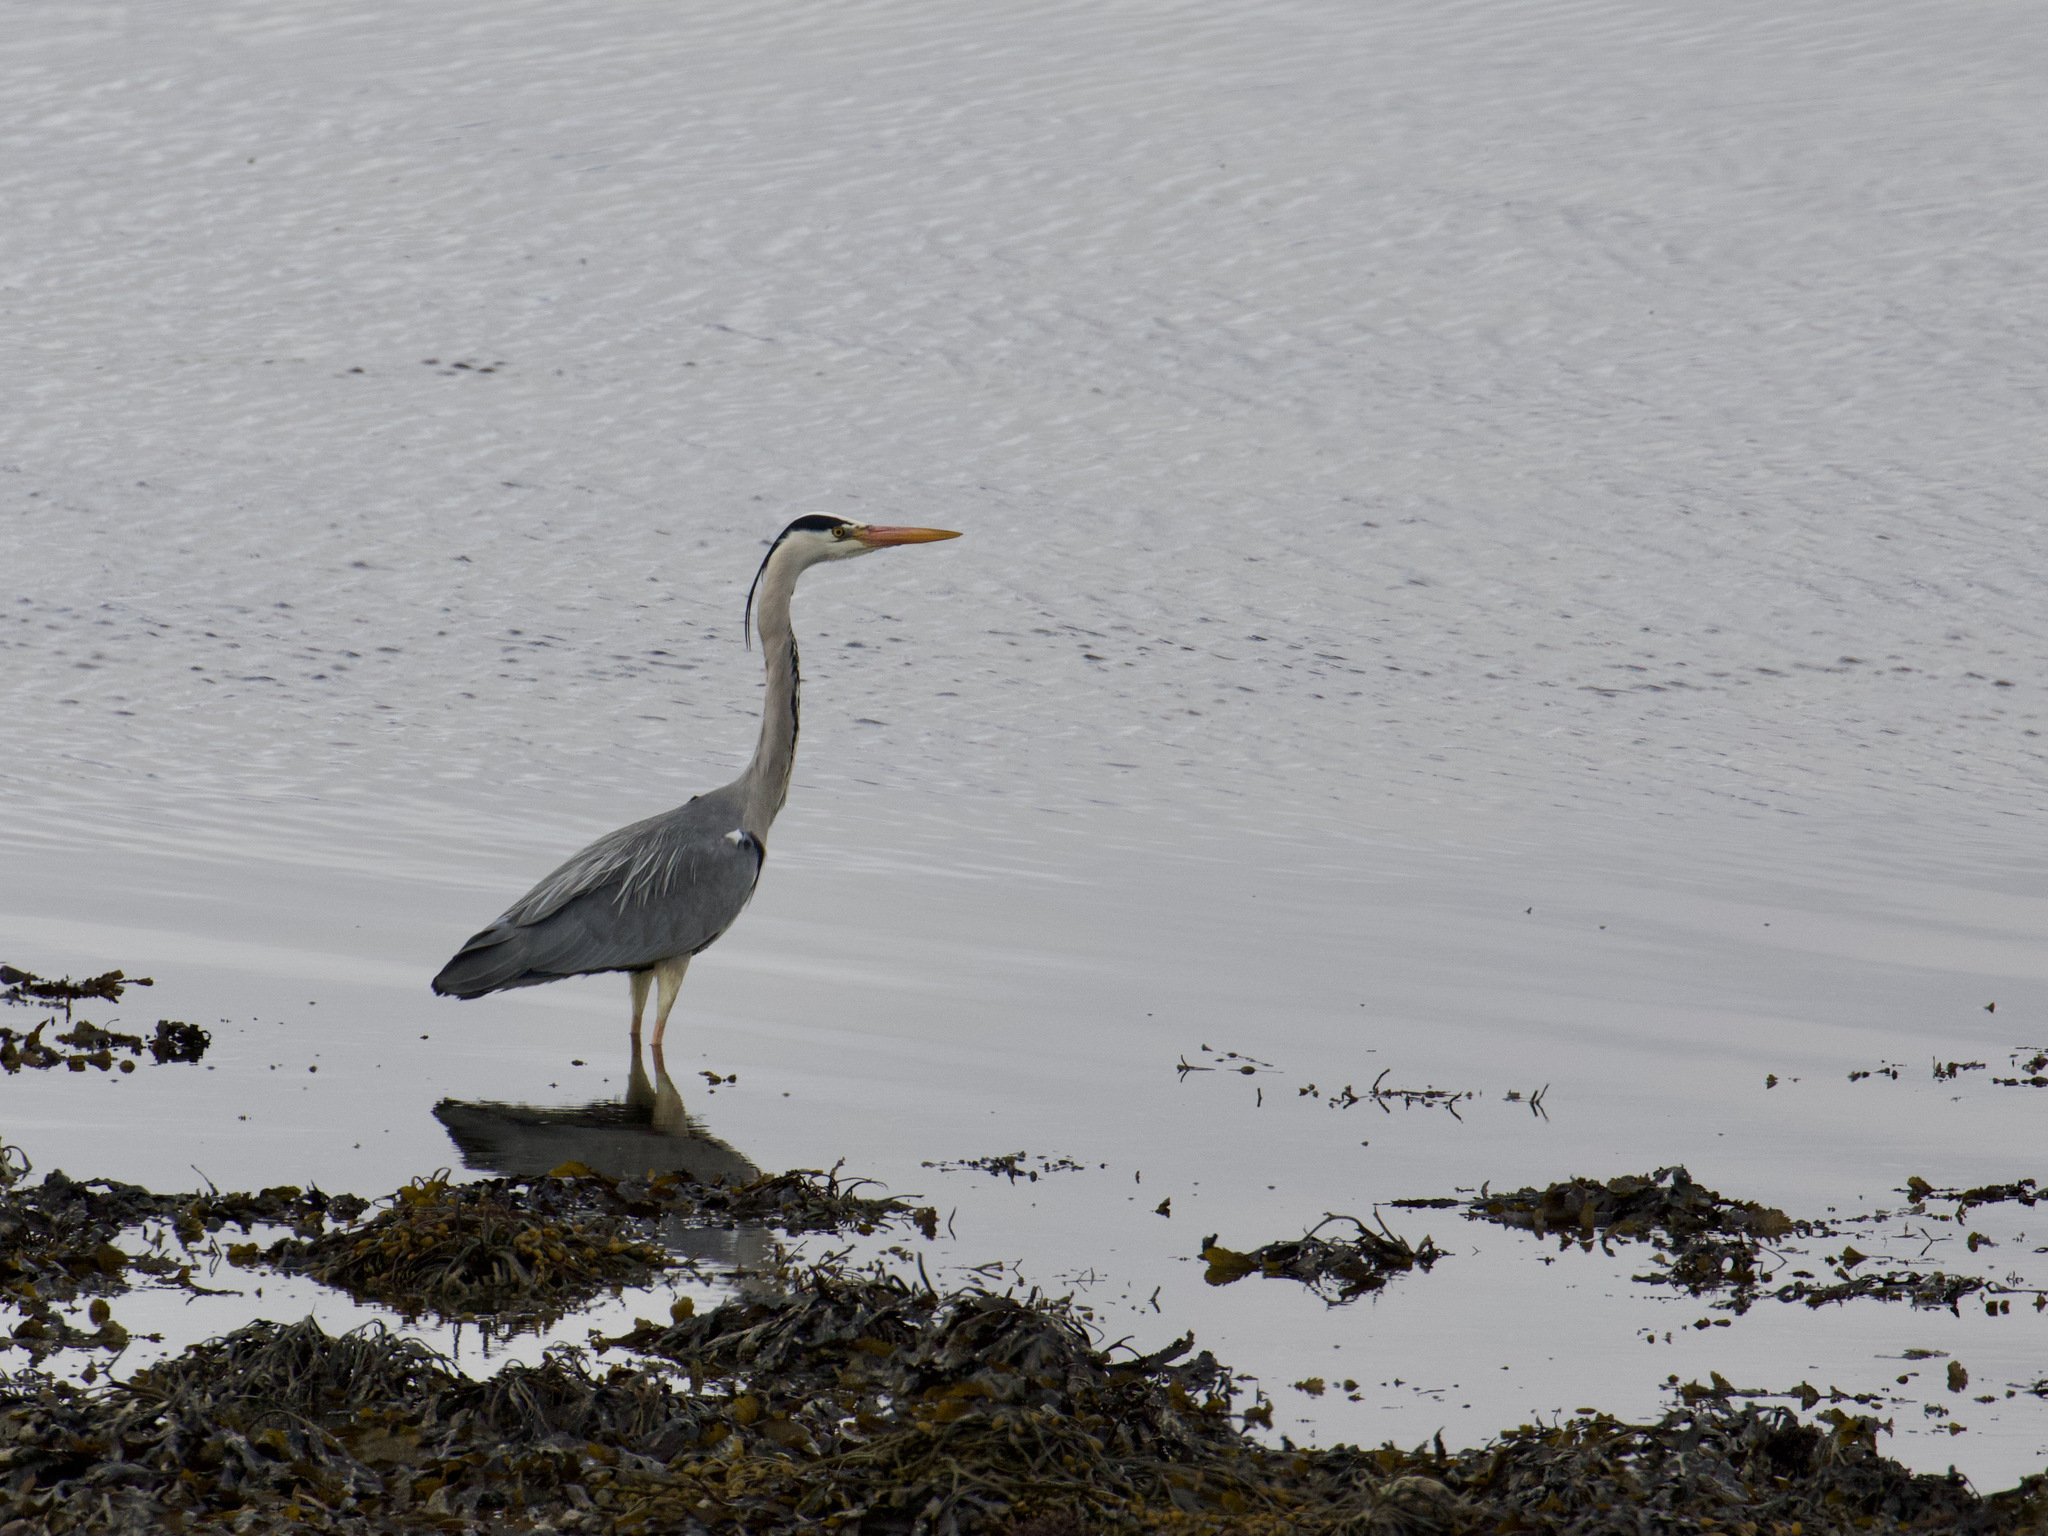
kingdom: Animalia
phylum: Chordata
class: Aves
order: Pelecaniformes
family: Ardeidae
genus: Ardea
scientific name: Ardea cinerea
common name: Grey heron
